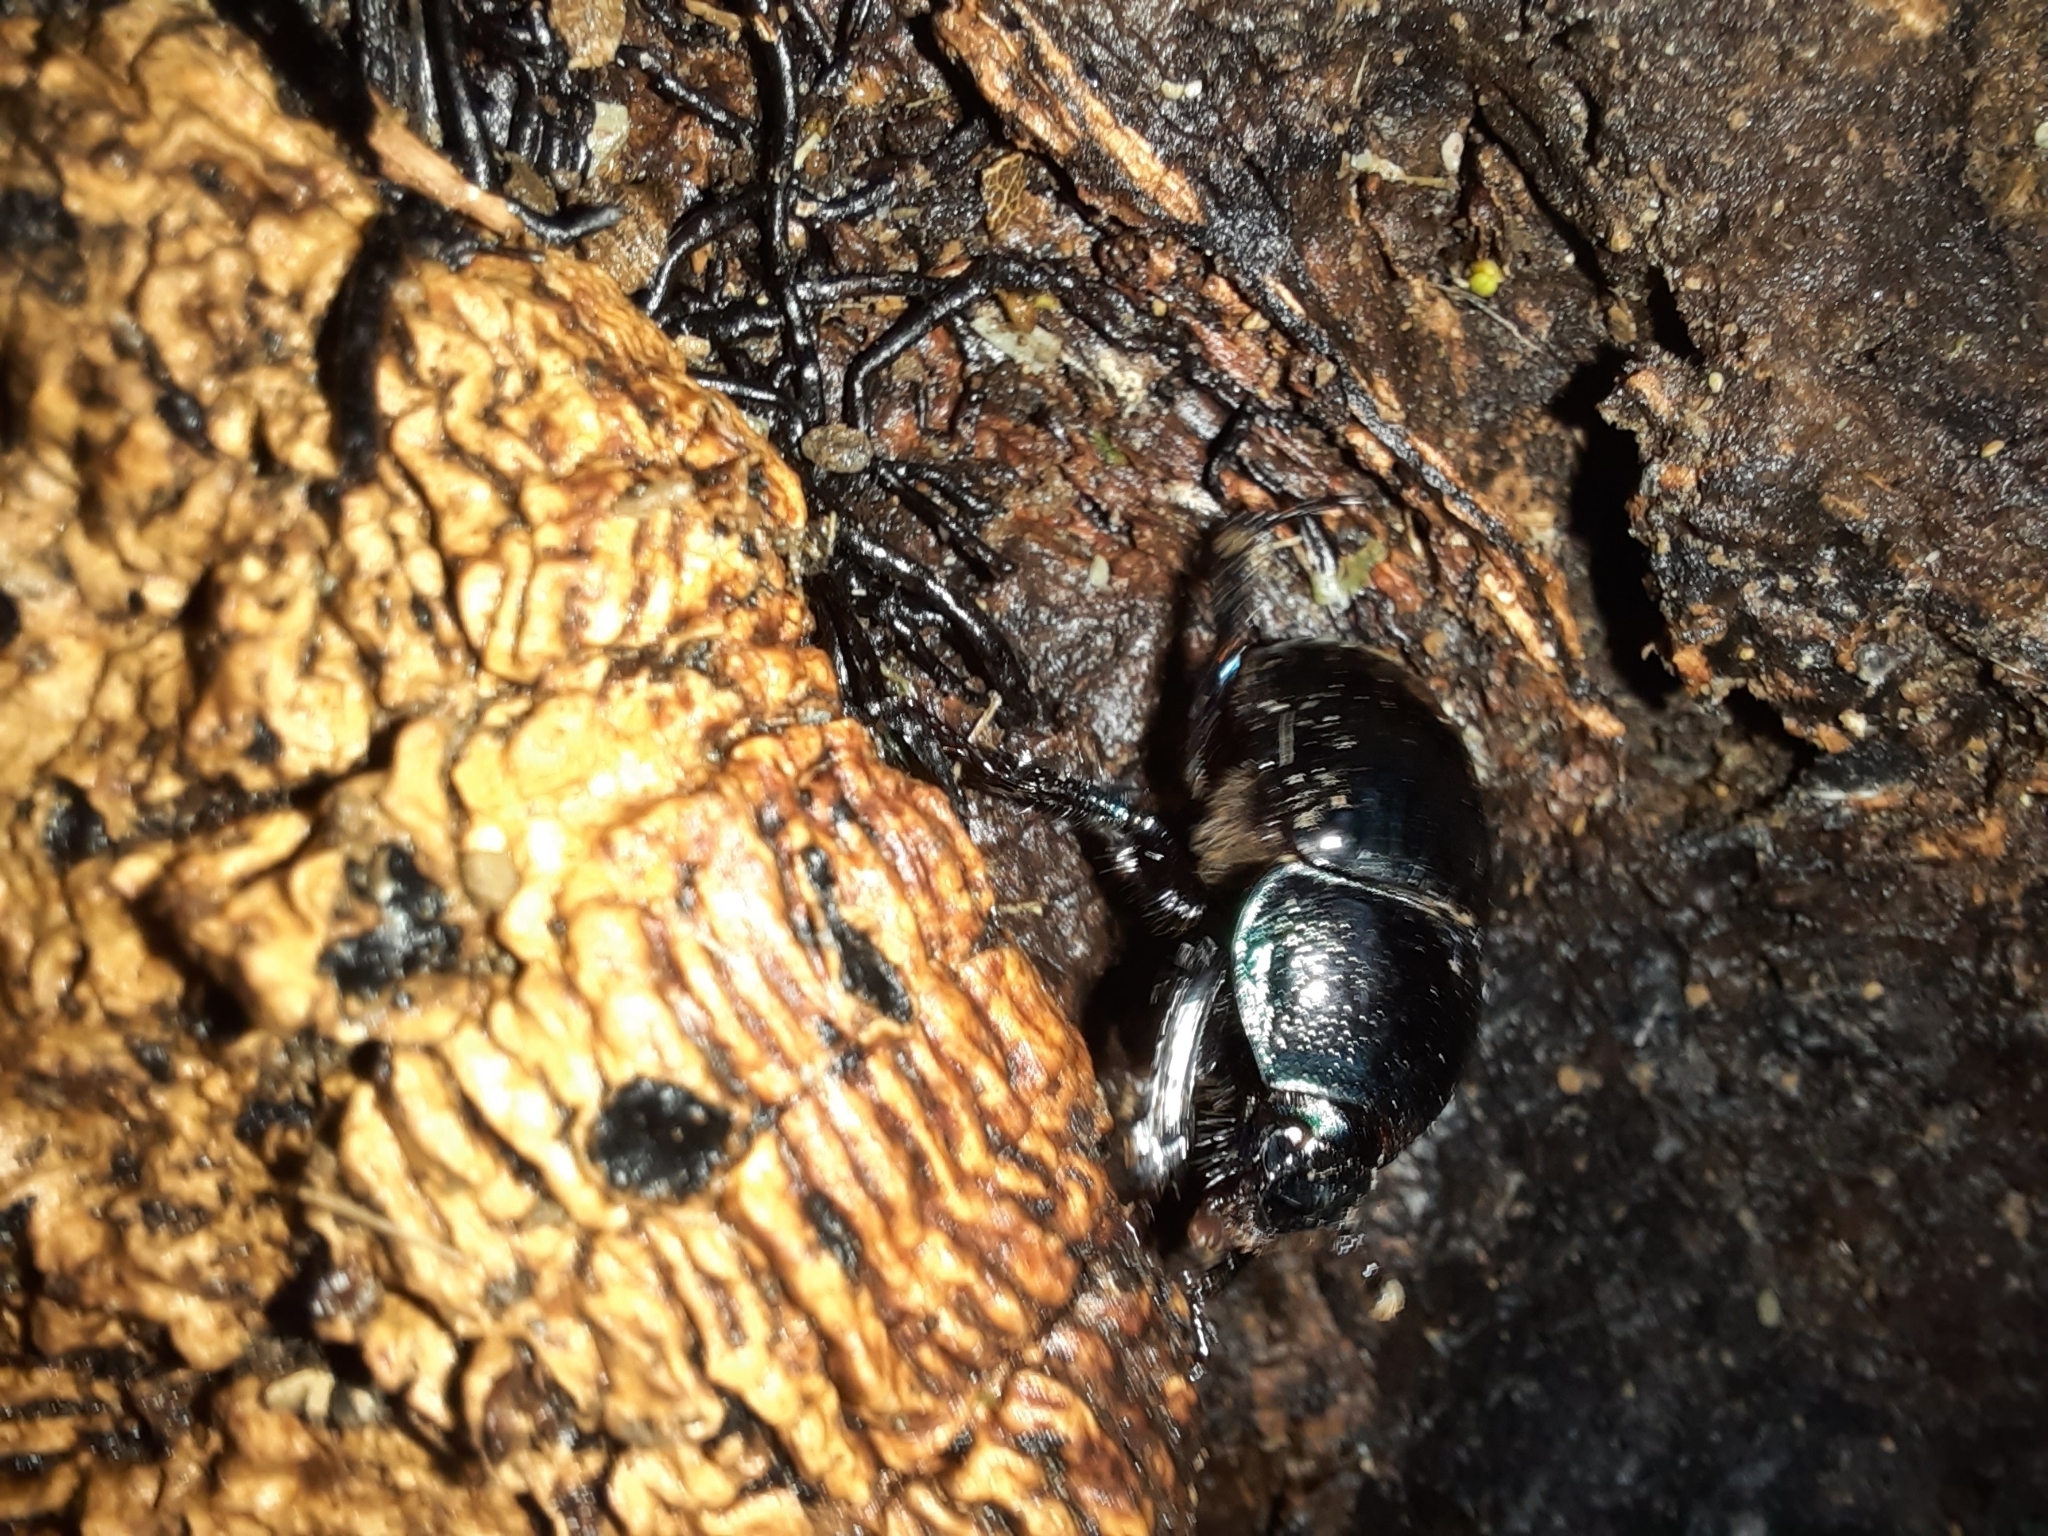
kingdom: Animalia
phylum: Arthropoda
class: Insecta
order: Coleoptera
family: Geotrupidae
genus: Anoplotrupes
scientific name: Anoplotrupes stercorosus
